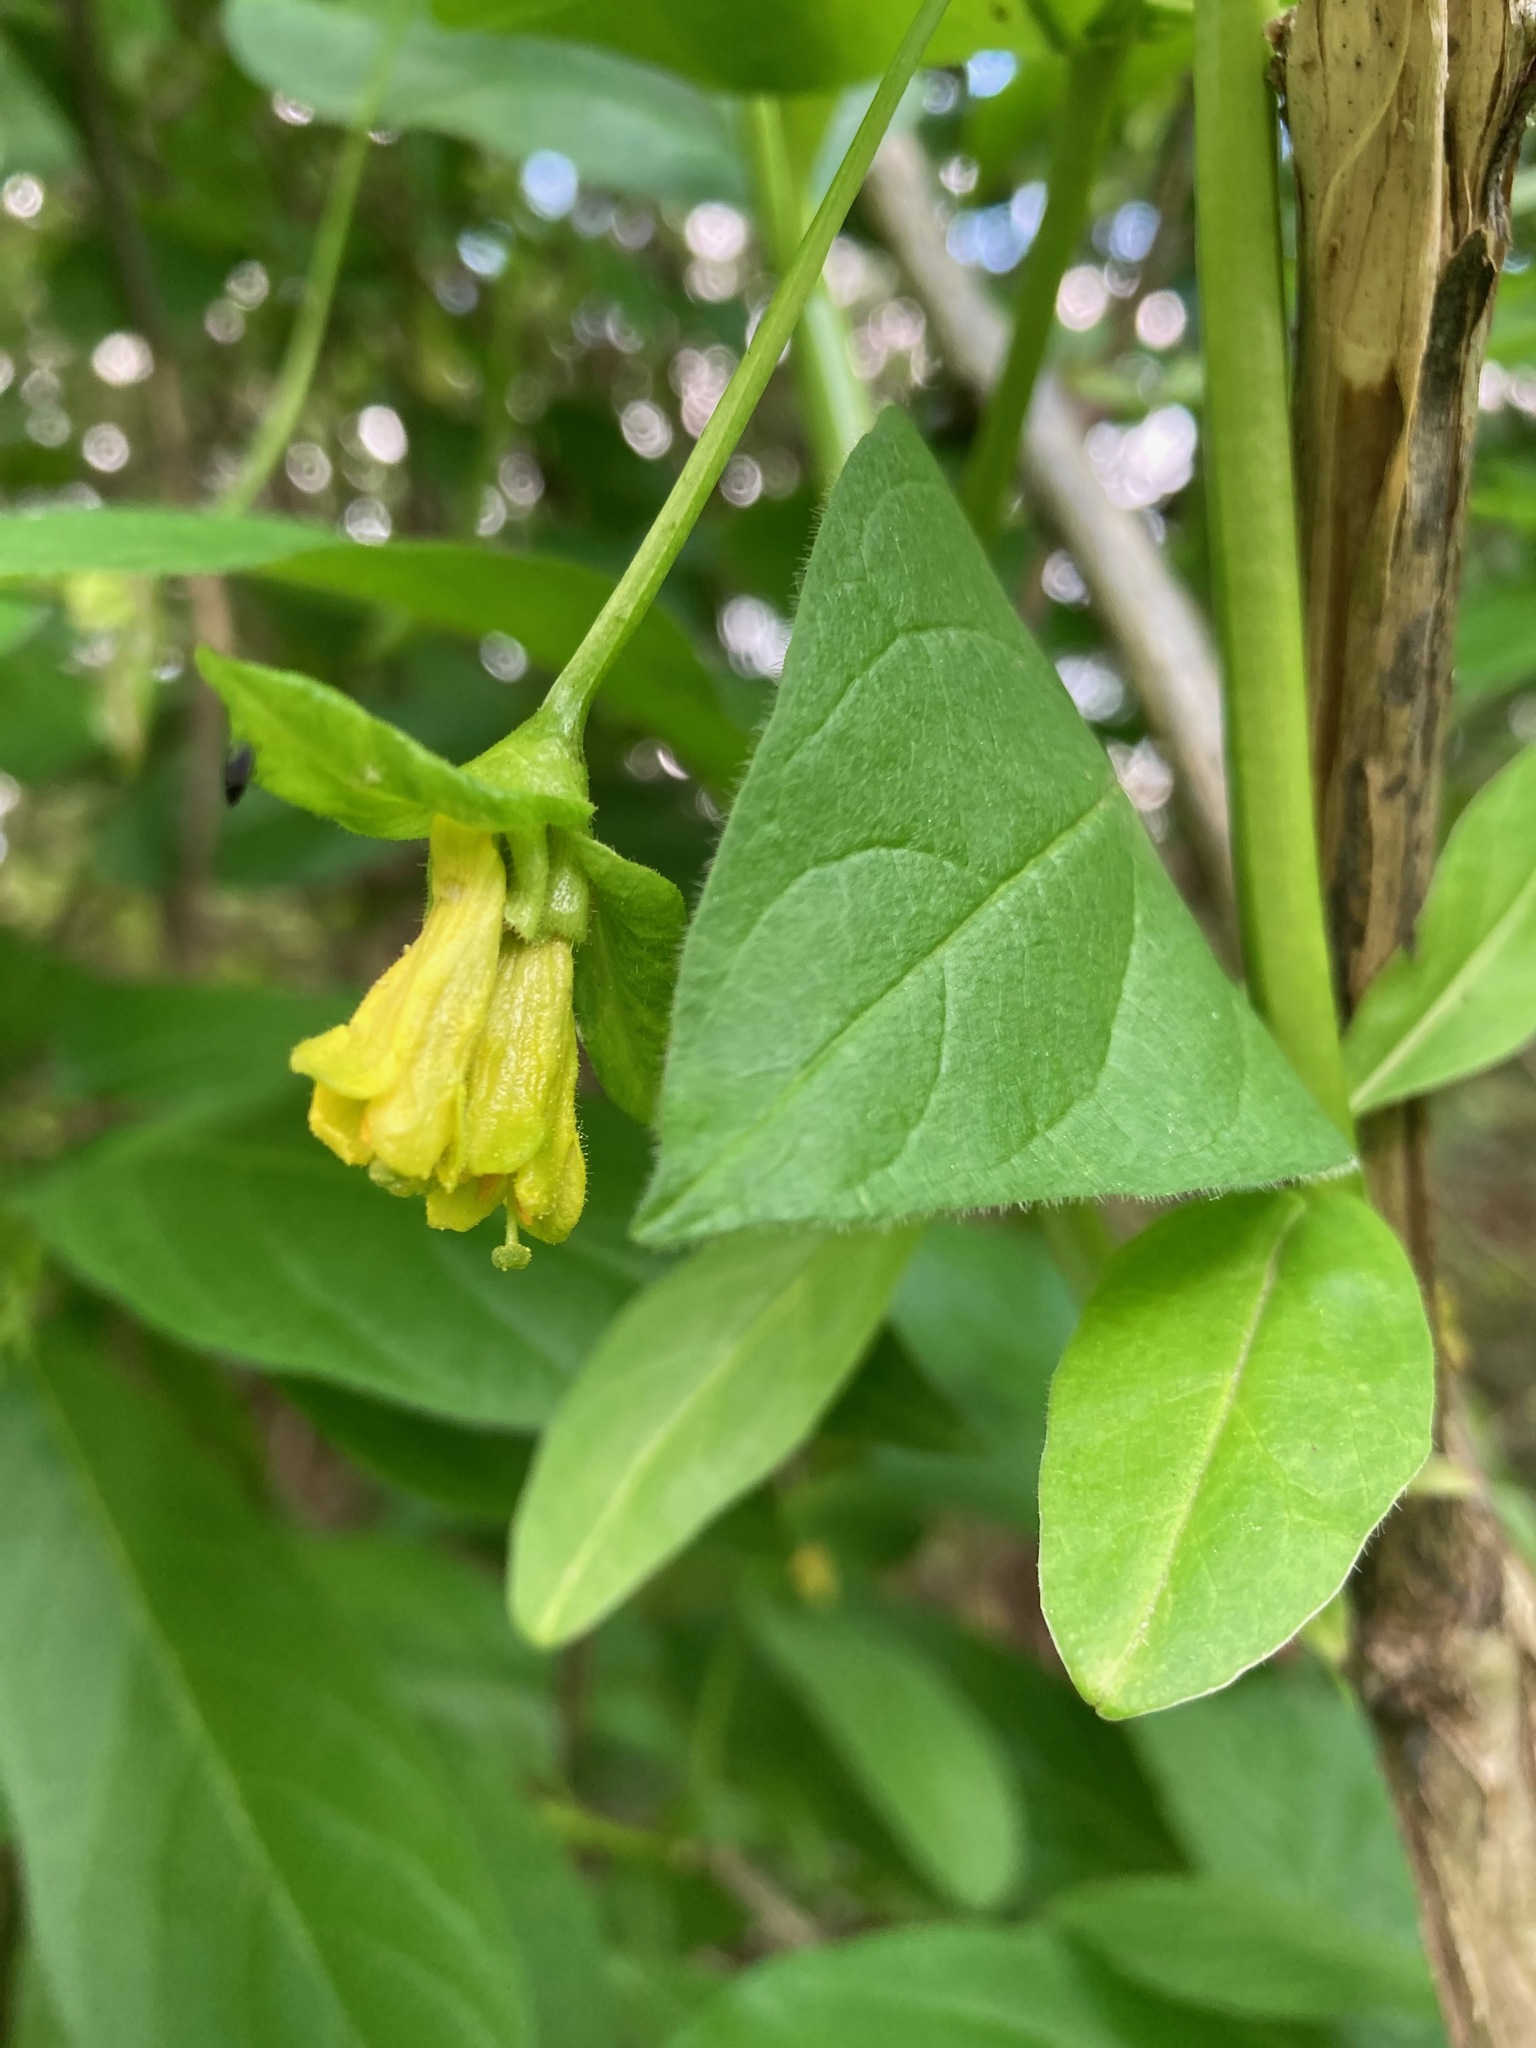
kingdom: Plantae
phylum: Tracheophyta
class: Magnoliopsida
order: Dipsacales
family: Caprifoliaceae
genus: Lonicera
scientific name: Lonicera involucrata
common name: Californian honeysuckle
